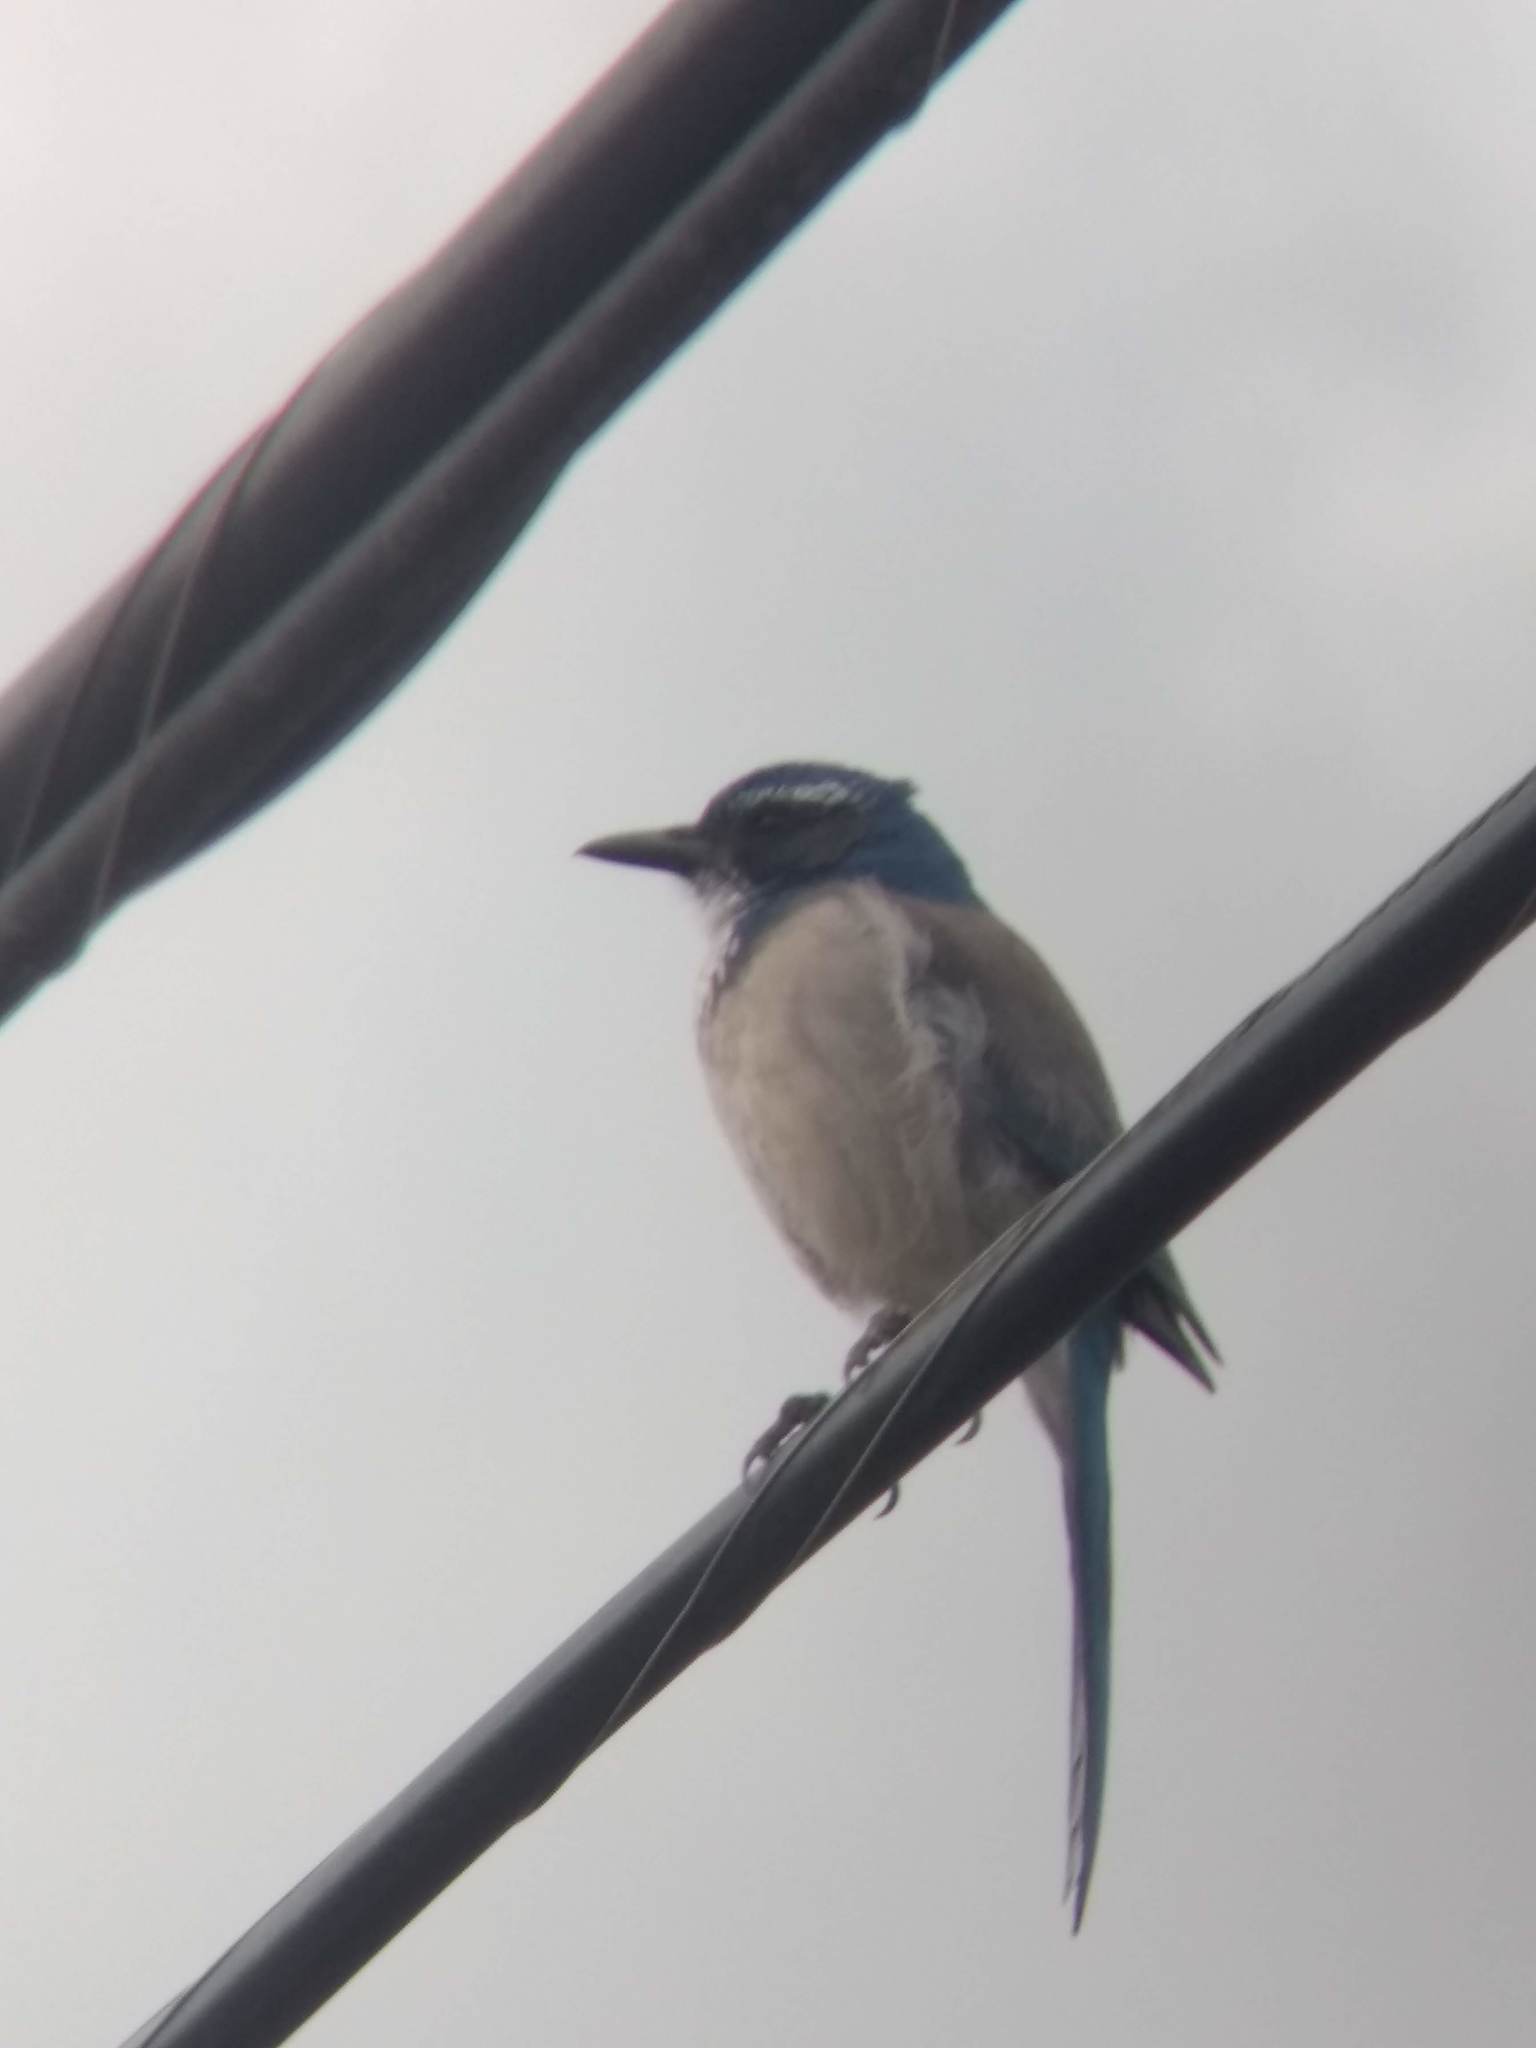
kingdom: Animalia
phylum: Chordata
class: Aves
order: Passeriformes
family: Corvidae
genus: Aphelocoma
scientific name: Aphelocoma californica
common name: California scrub-jay
